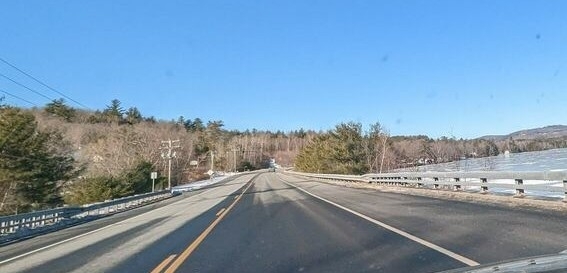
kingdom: Plantae
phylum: Tracheophyta
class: Pinopsida
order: Pinales
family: Pinaceae
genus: Pinus
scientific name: Pinus strobus
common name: Weymouth pine
